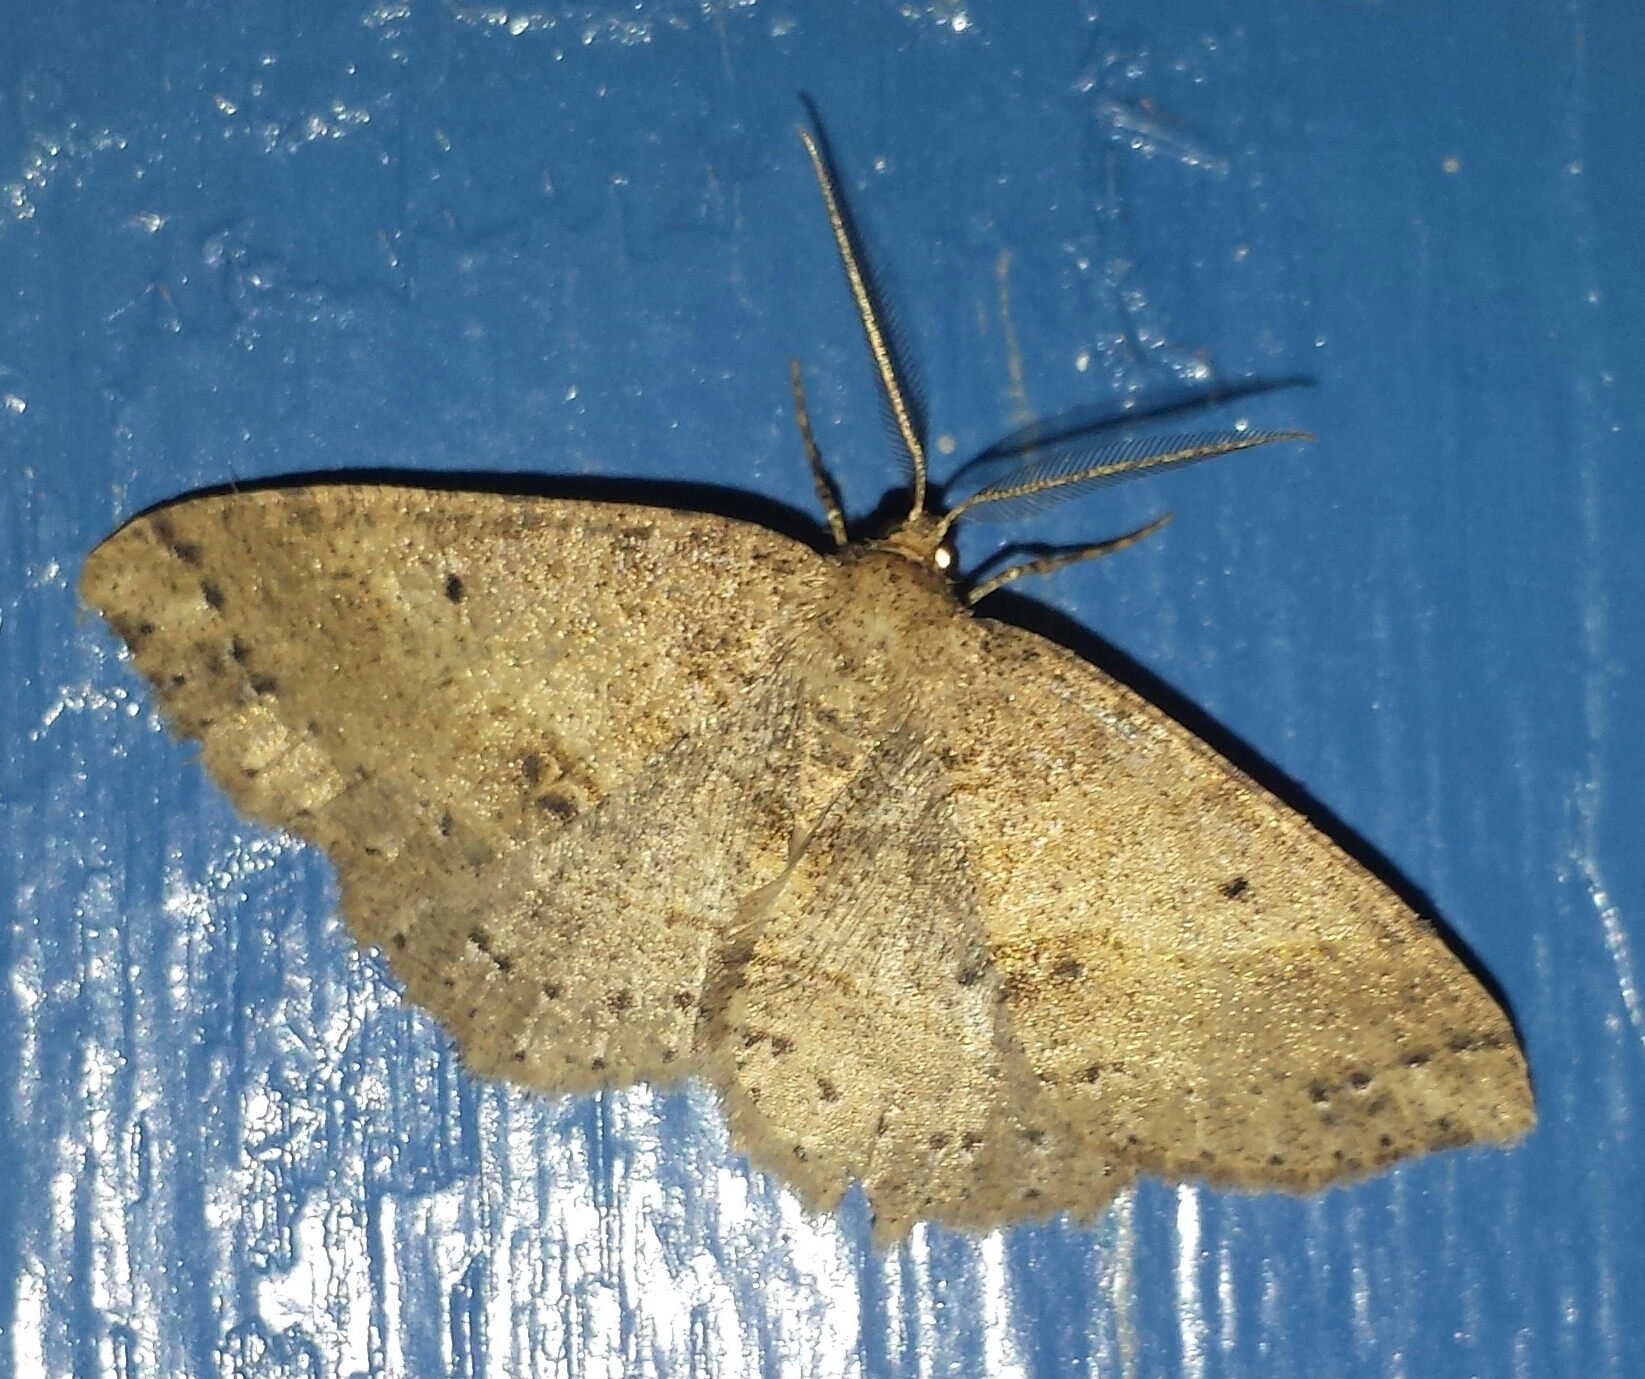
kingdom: Animalia
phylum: Arthropoda
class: Insecta
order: Lepidoptera
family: Geometridae
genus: Melanolophia
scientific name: Melanolophia signataria
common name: Signate melanolophia
